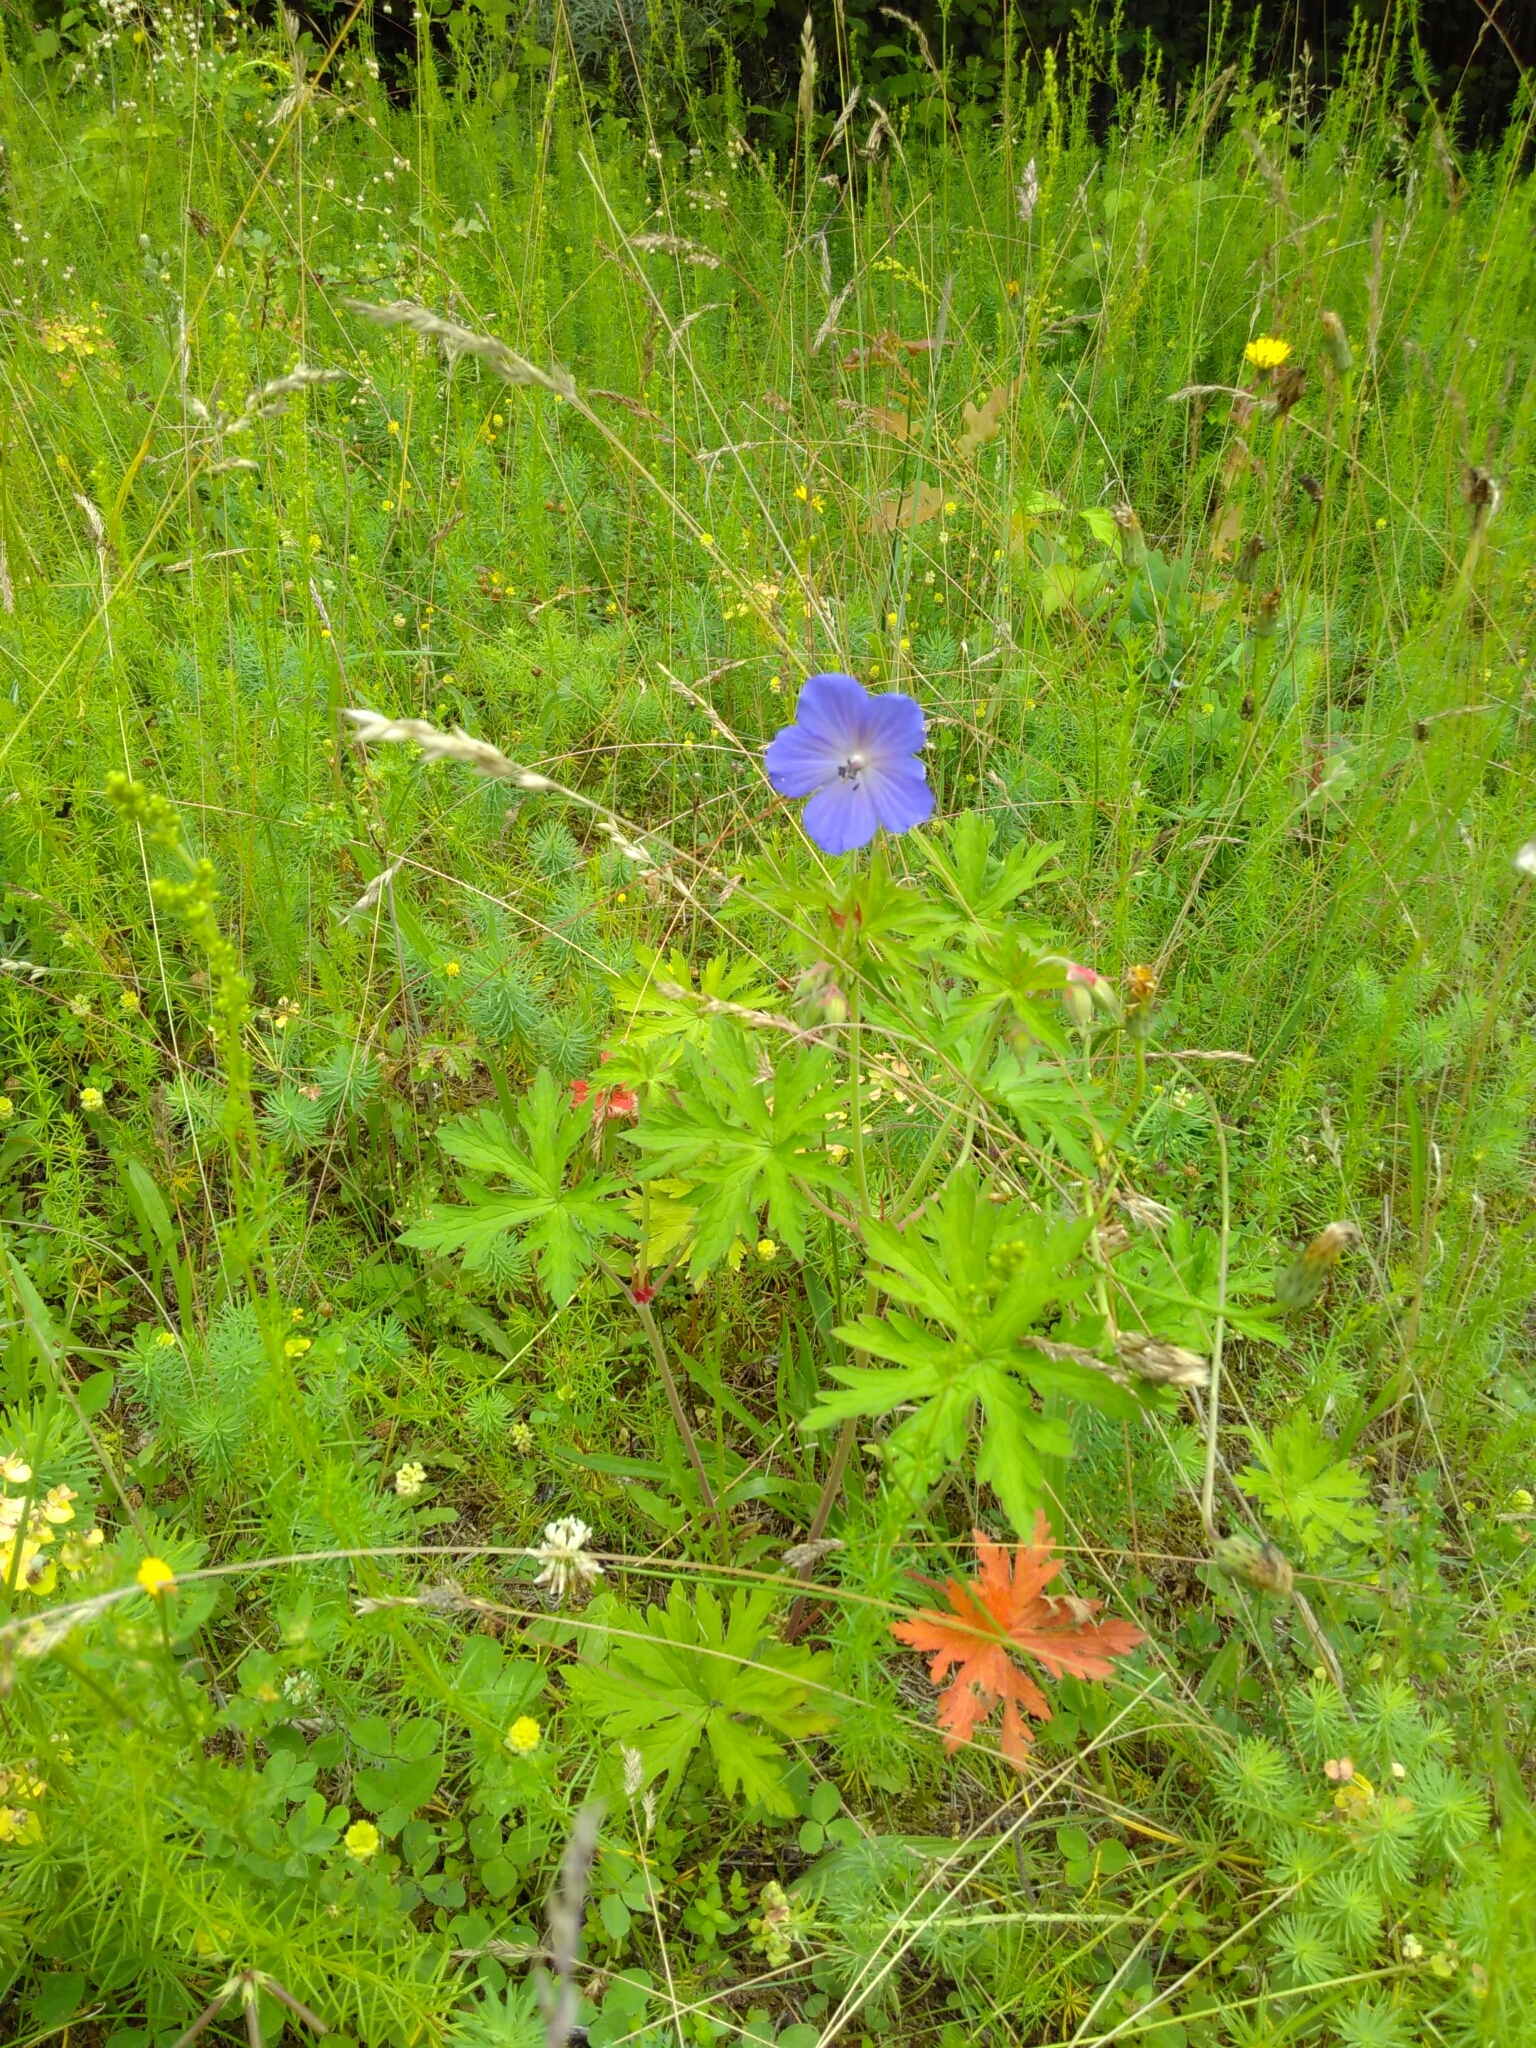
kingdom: Plantae
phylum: Tracheophyta
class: Magnoliopsida
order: Geraniales
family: Geraniaceae
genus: Geranium
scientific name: Geranium pratense
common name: Meadow crane's-bill
